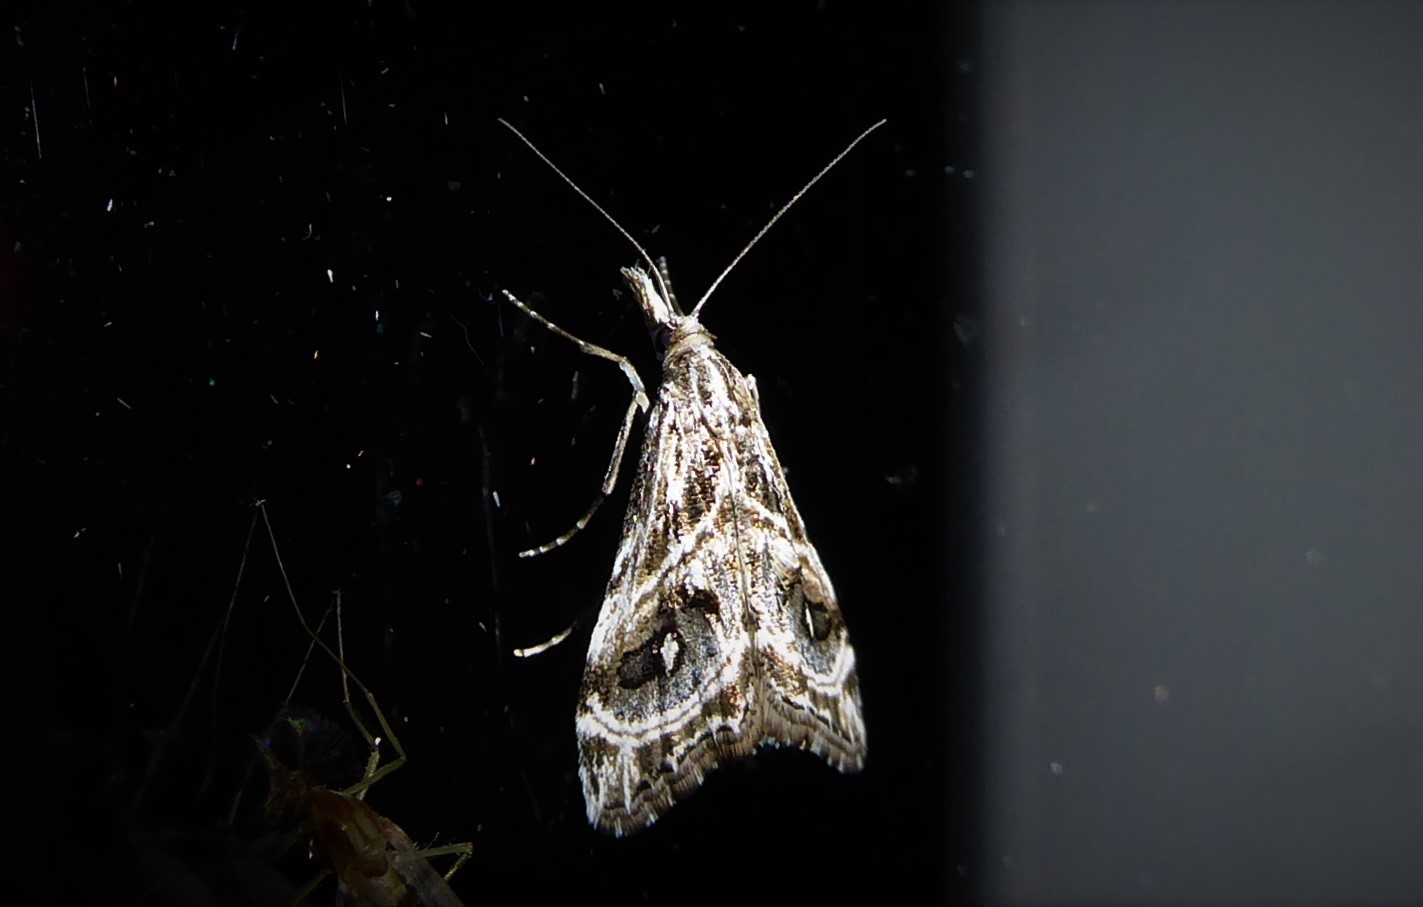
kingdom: Animalia
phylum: Arthropoda
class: Insecta
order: Lepidoptera
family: Crambidae
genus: Gadira
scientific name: Gadira acerella
